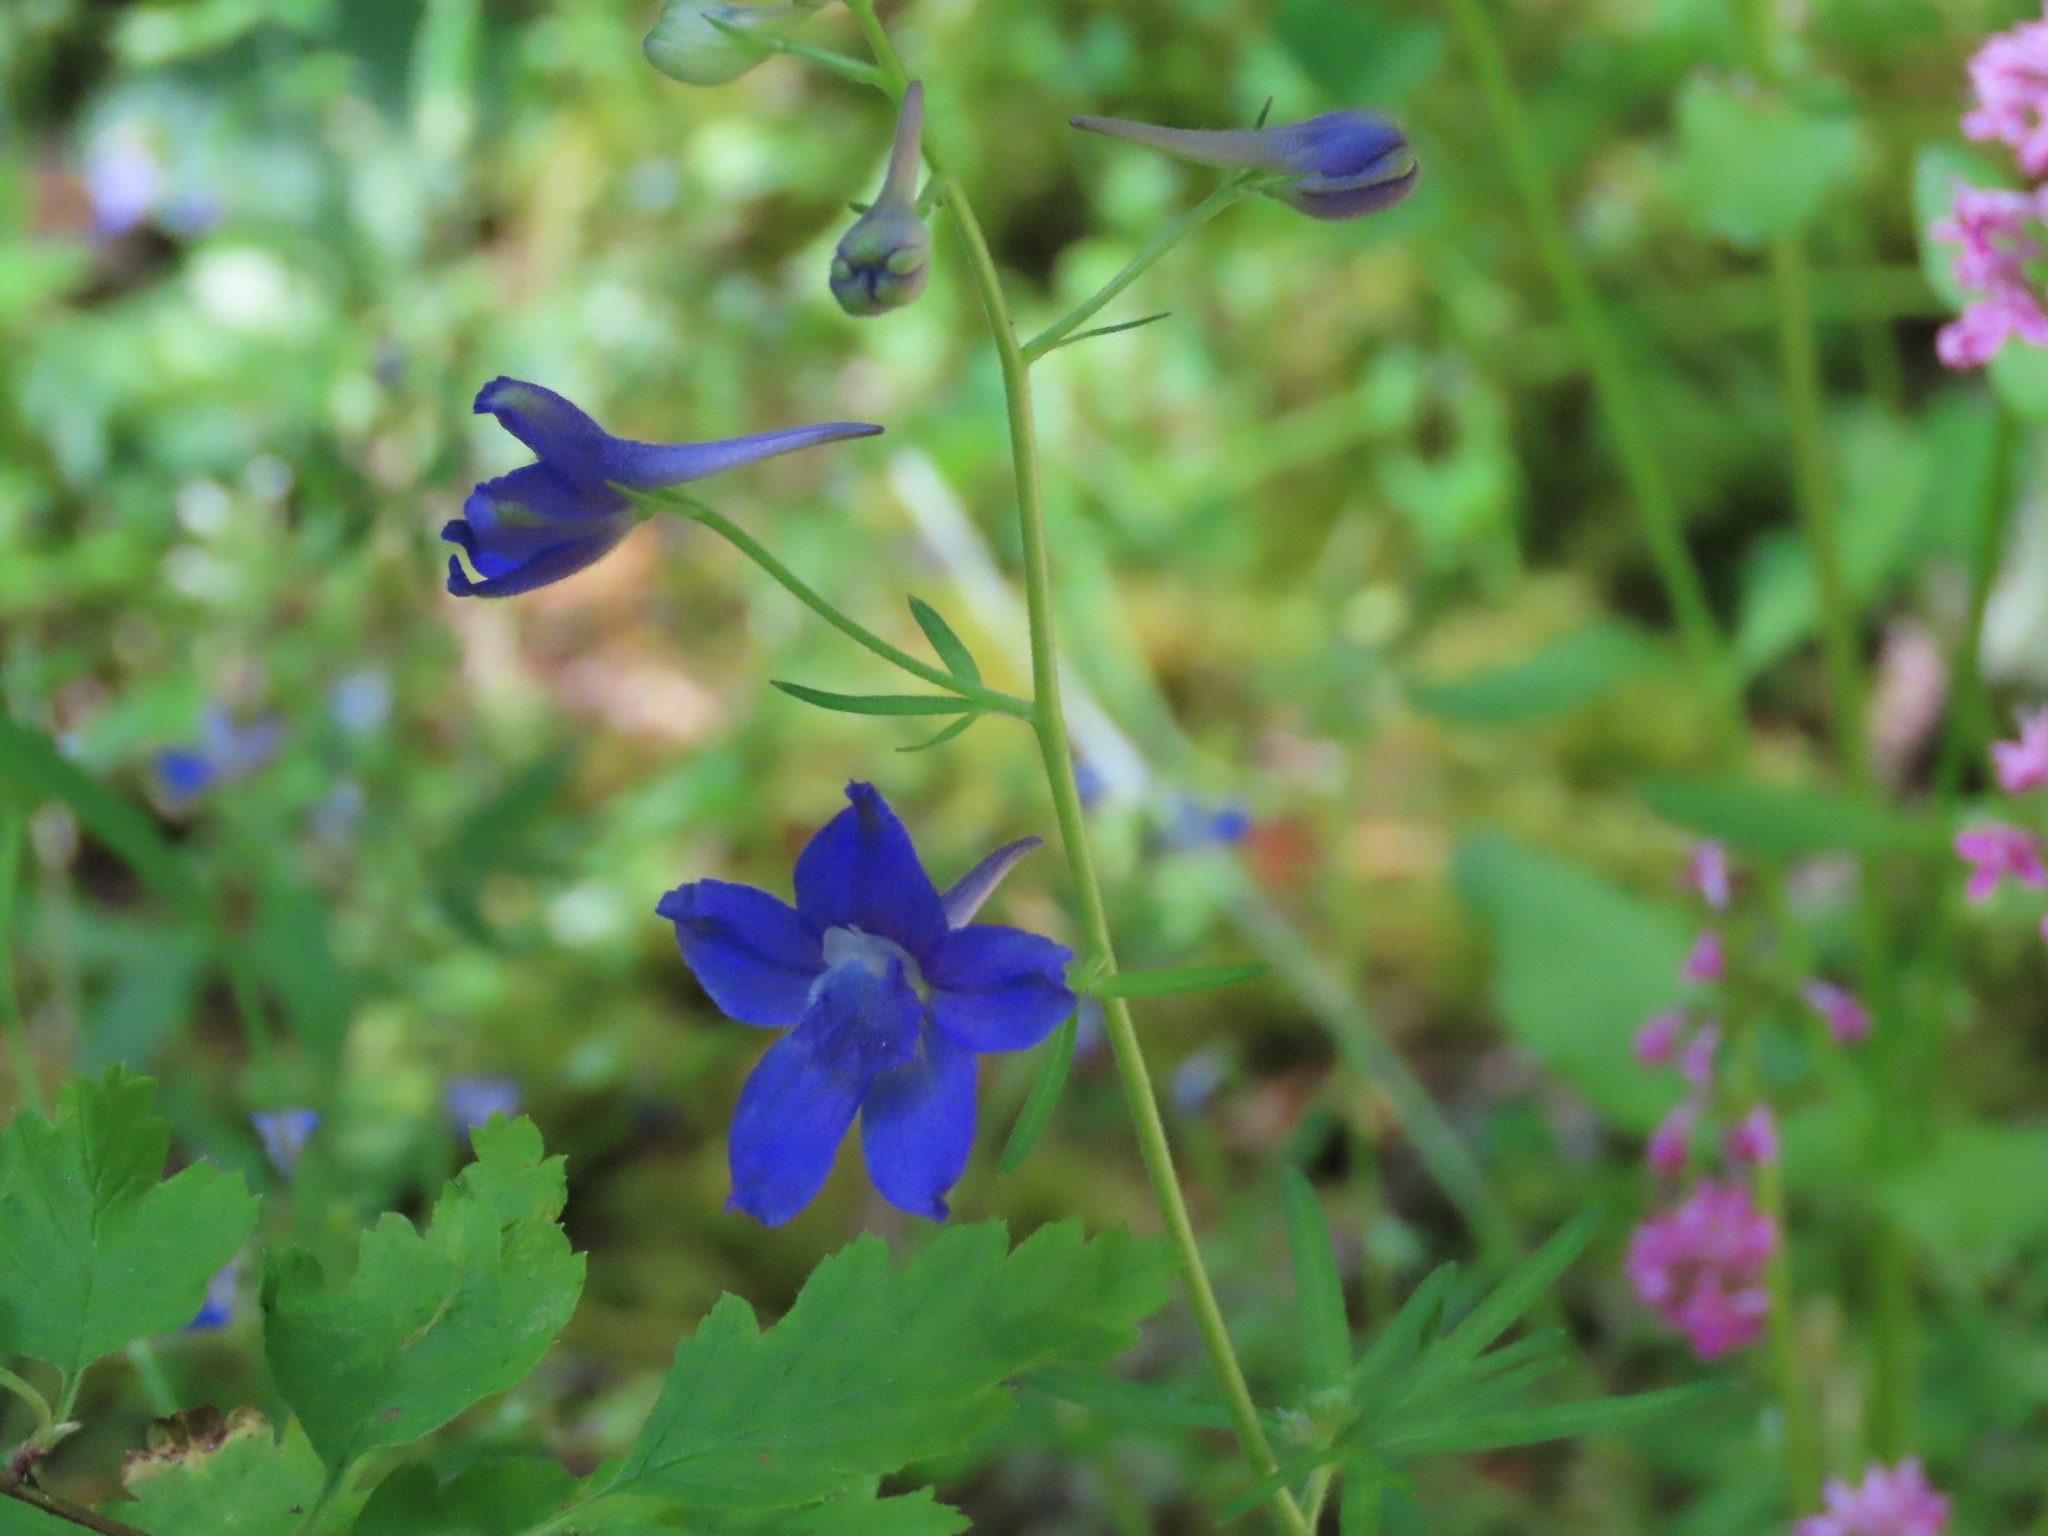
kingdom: Plantae
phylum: Tracheophyta
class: Magnoliopsida
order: Ranunculales
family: Ranunculaceae
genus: Delphinium
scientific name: Delphinium menziesii
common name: Menzies's larkspur
